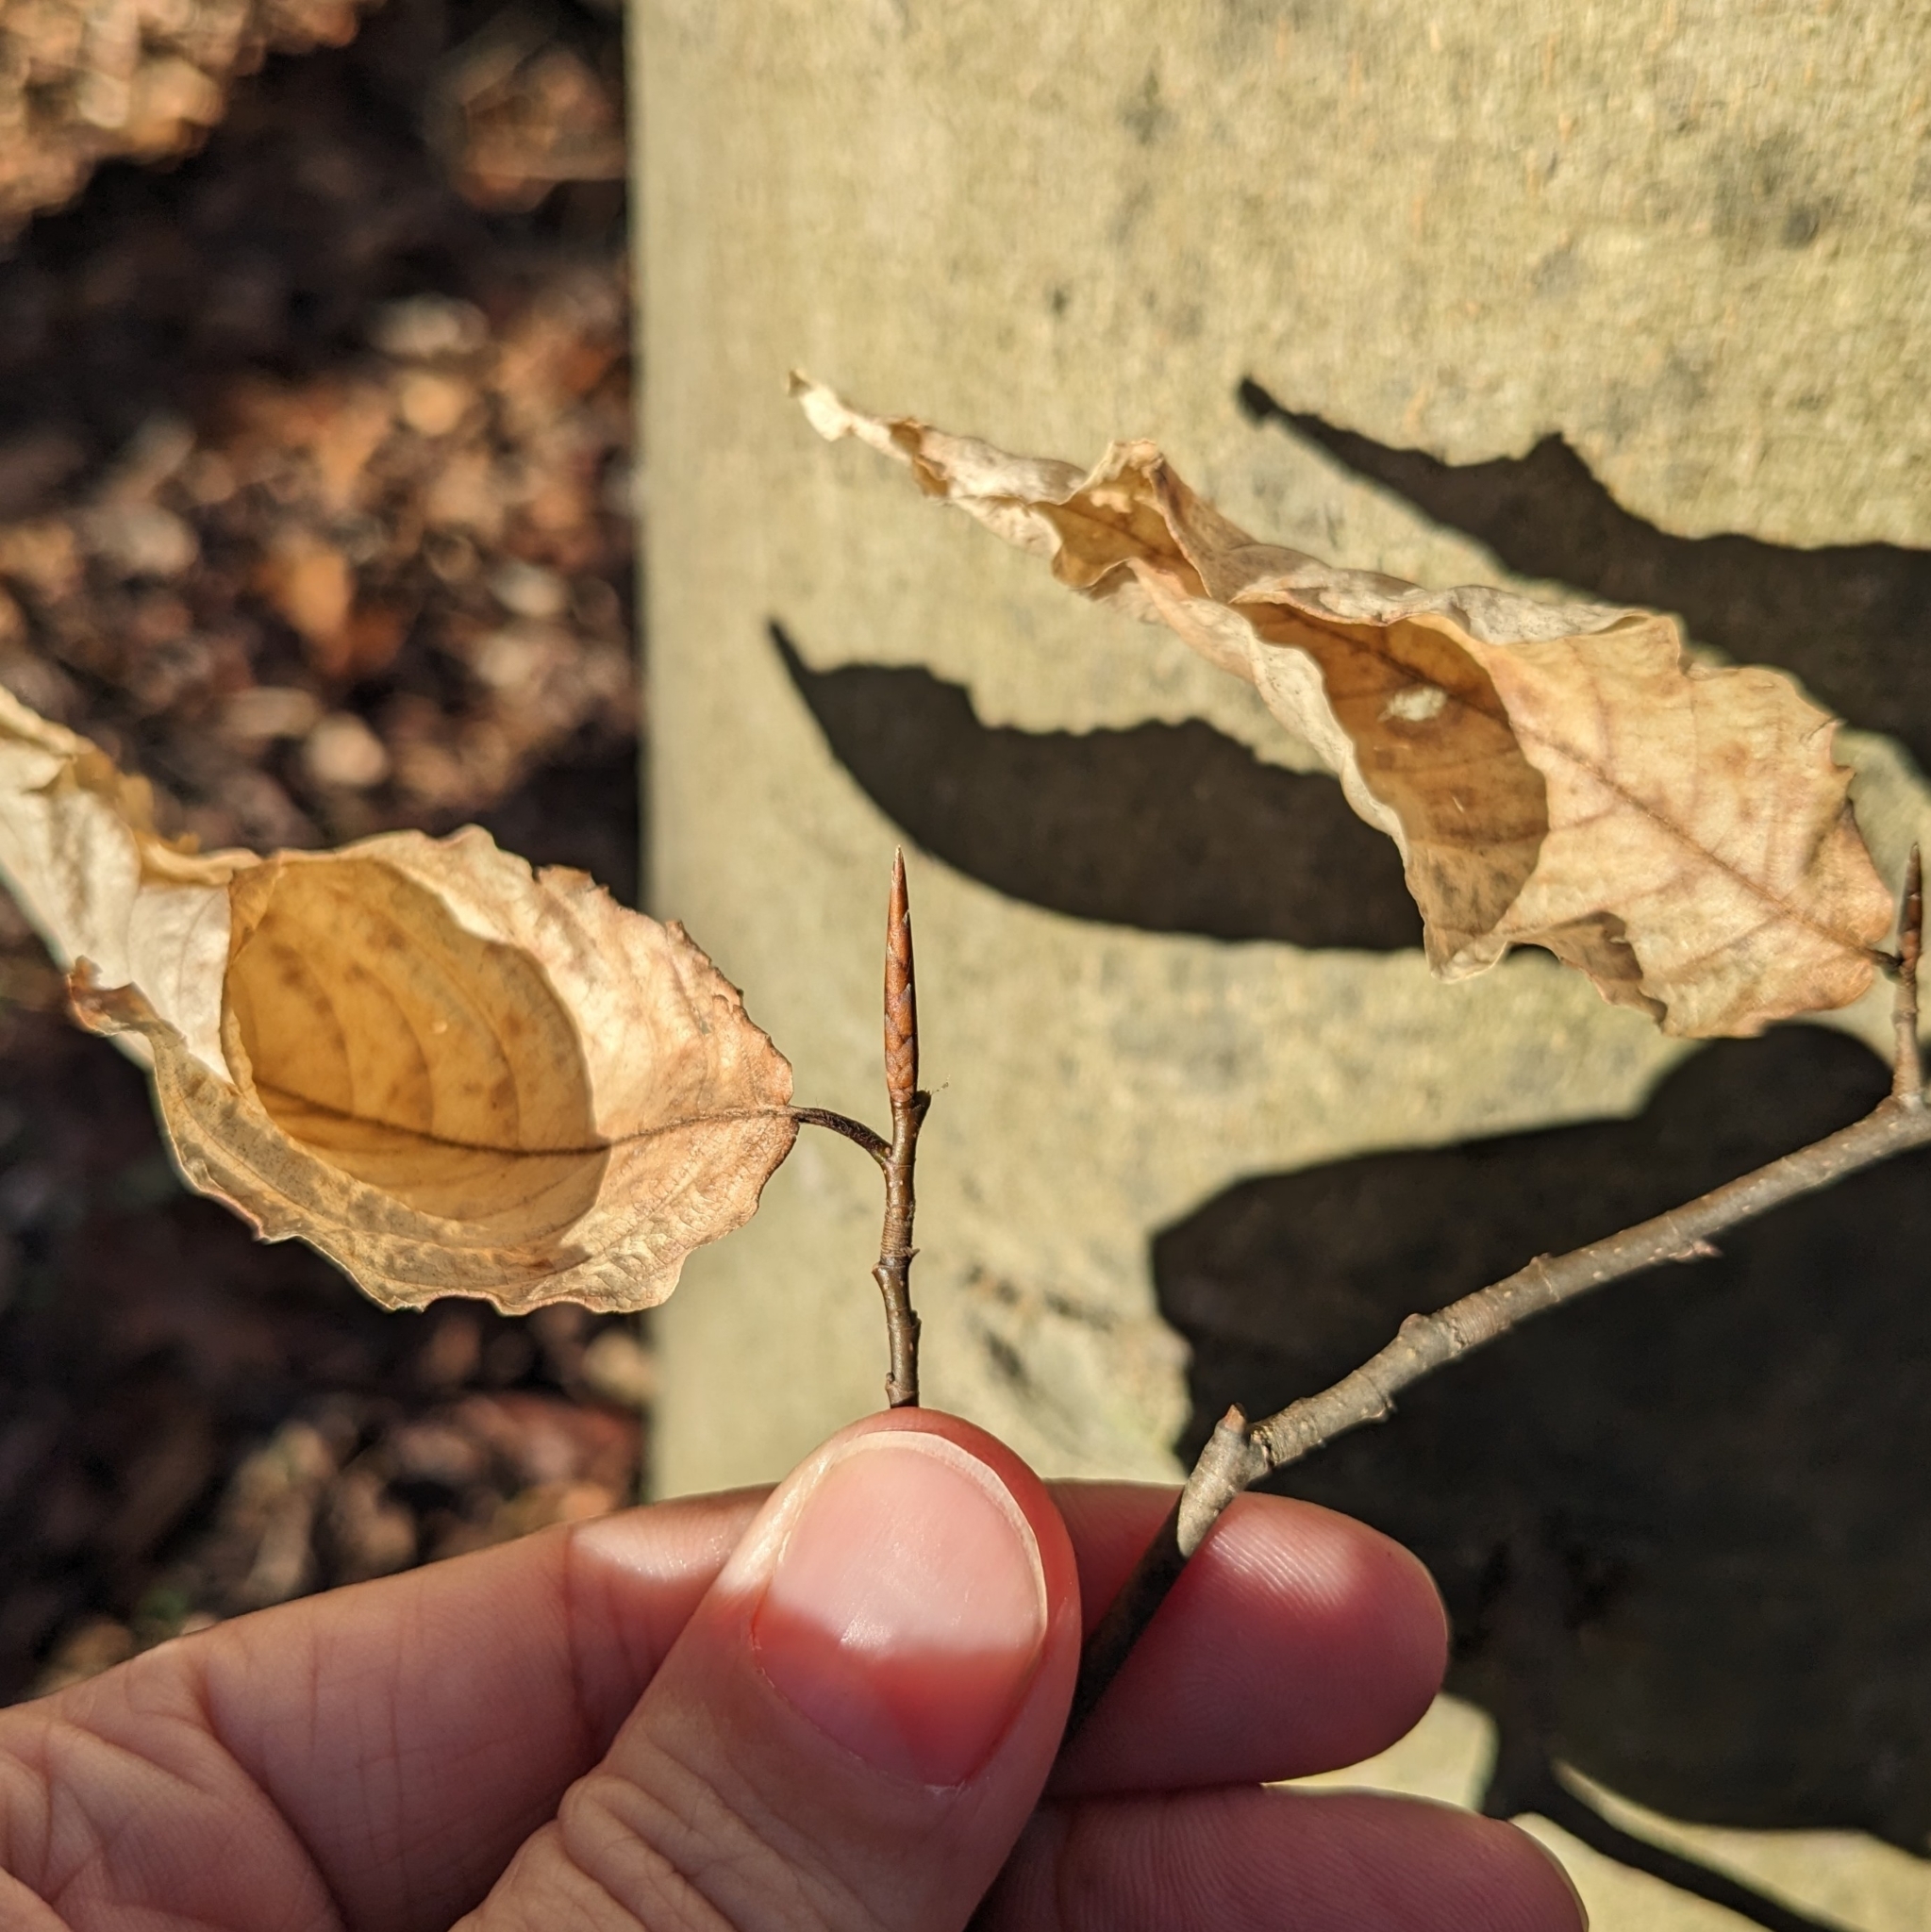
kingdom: Plantae
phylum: Tracheophyta
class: Magnoliopsida
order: Fagales
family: Fagaceae
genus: Fagus
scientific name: Fagus grandifolia
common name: American beech
